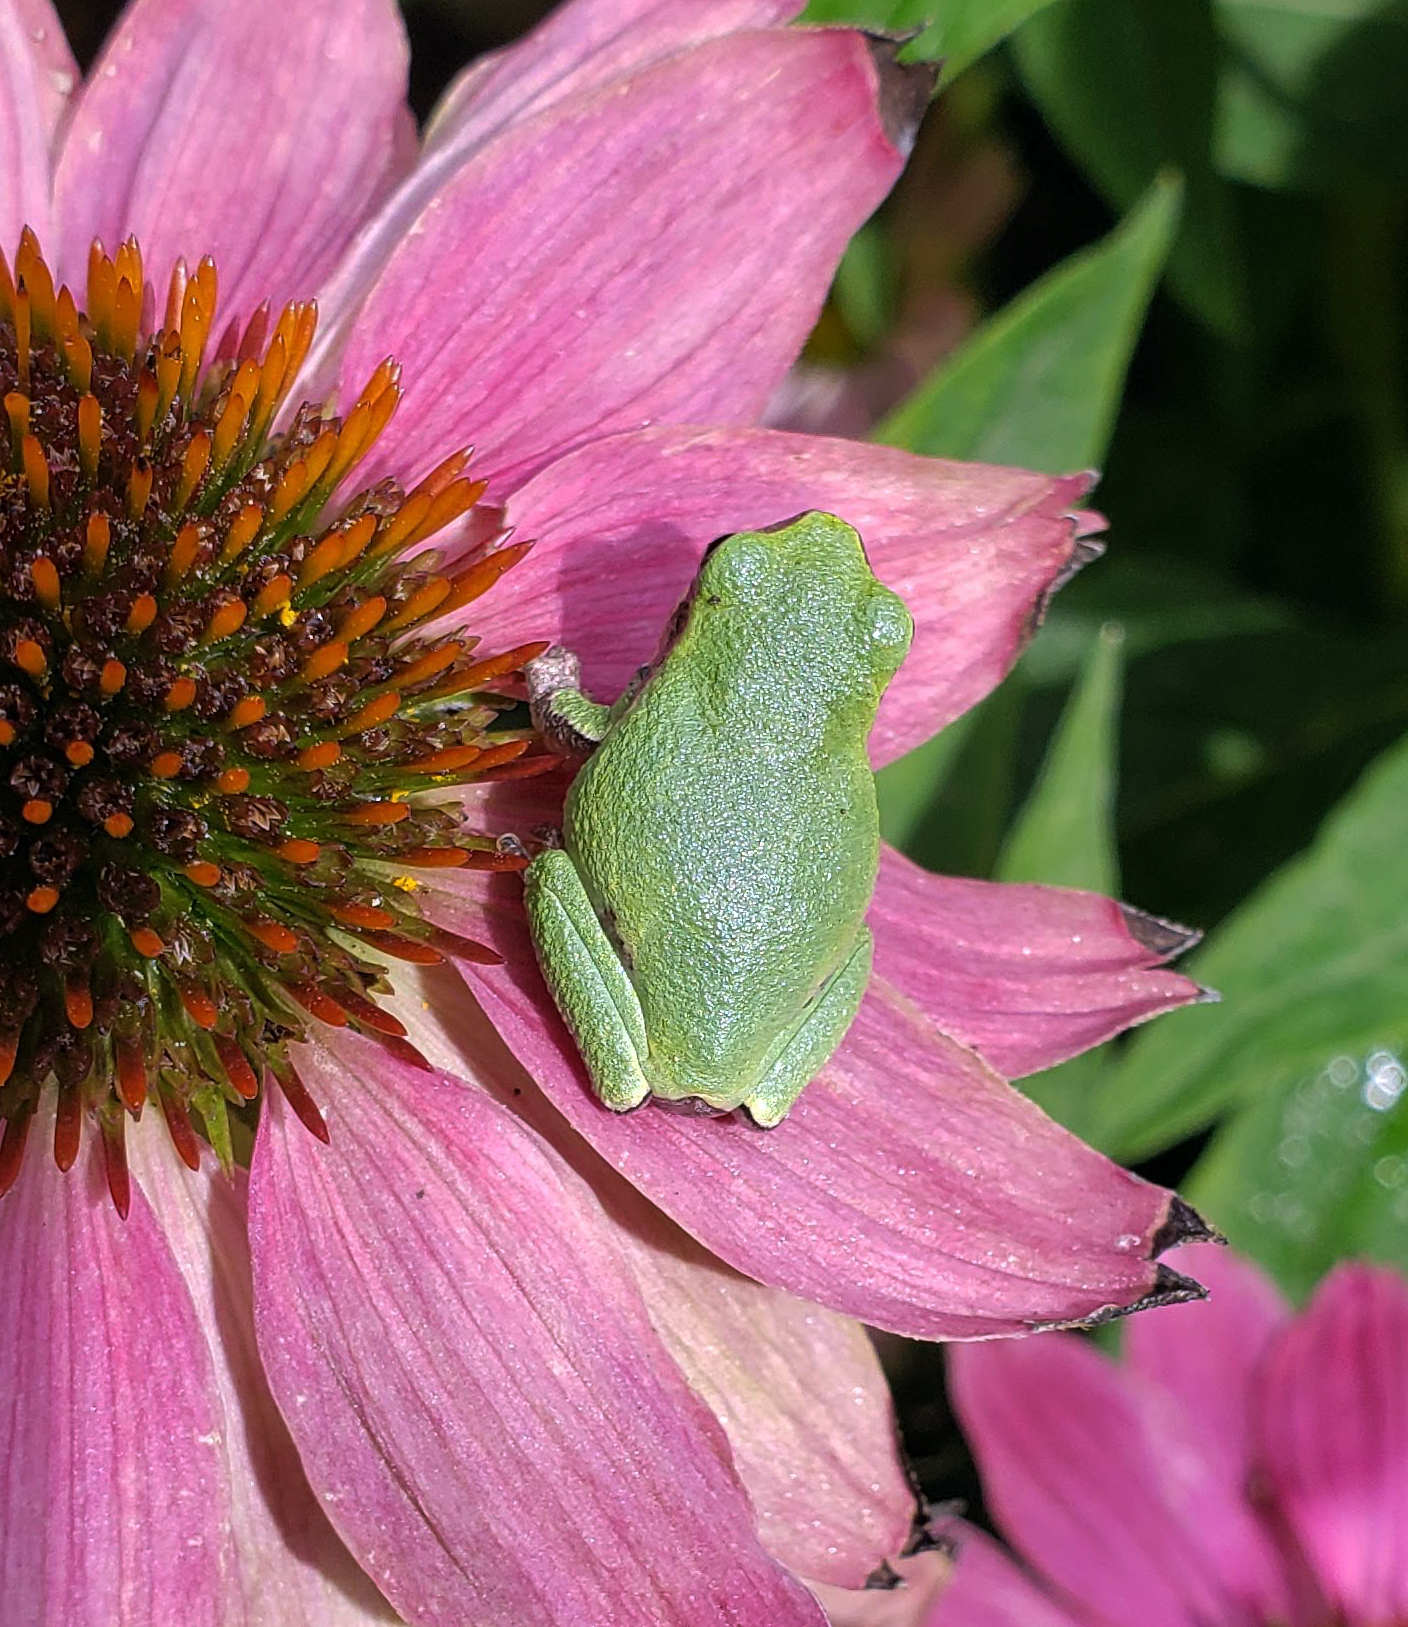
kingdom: Animalia
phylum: Chordata
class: Amphibia
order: Anura
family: Hylidae
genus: Hyla
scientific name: Hyla
